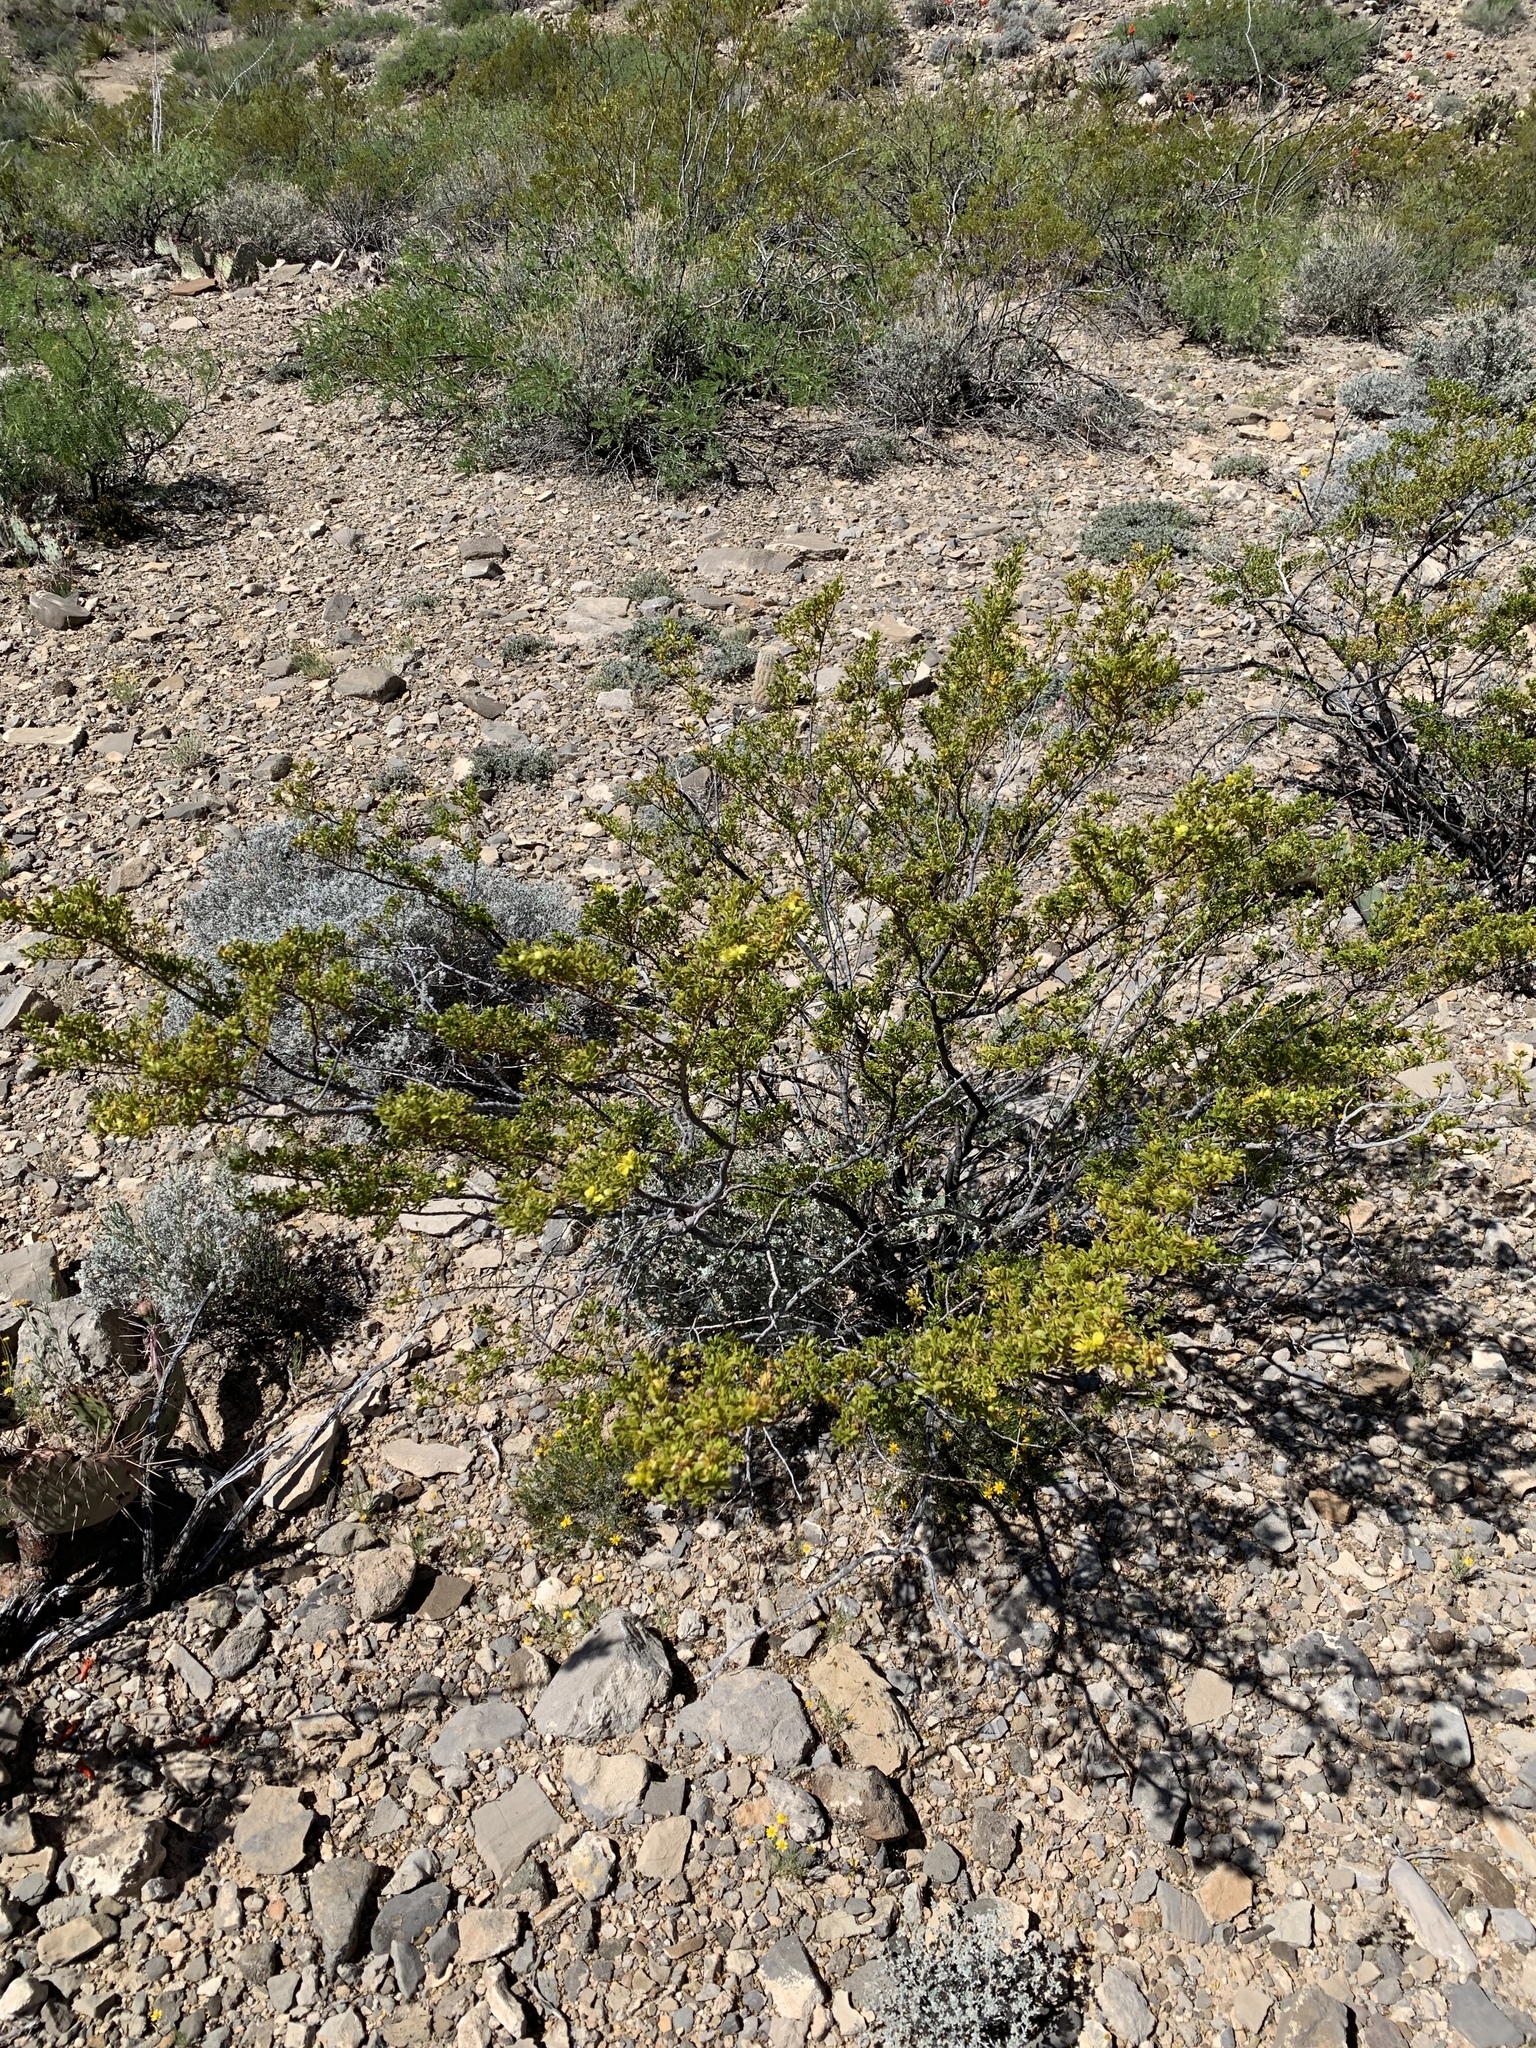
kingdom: Plantae
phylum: Tracheophyta
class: Magnoliopsida
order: Zygophyllales
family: Zygophyllaceae
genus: Larrea
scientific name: Larrea tridentata
